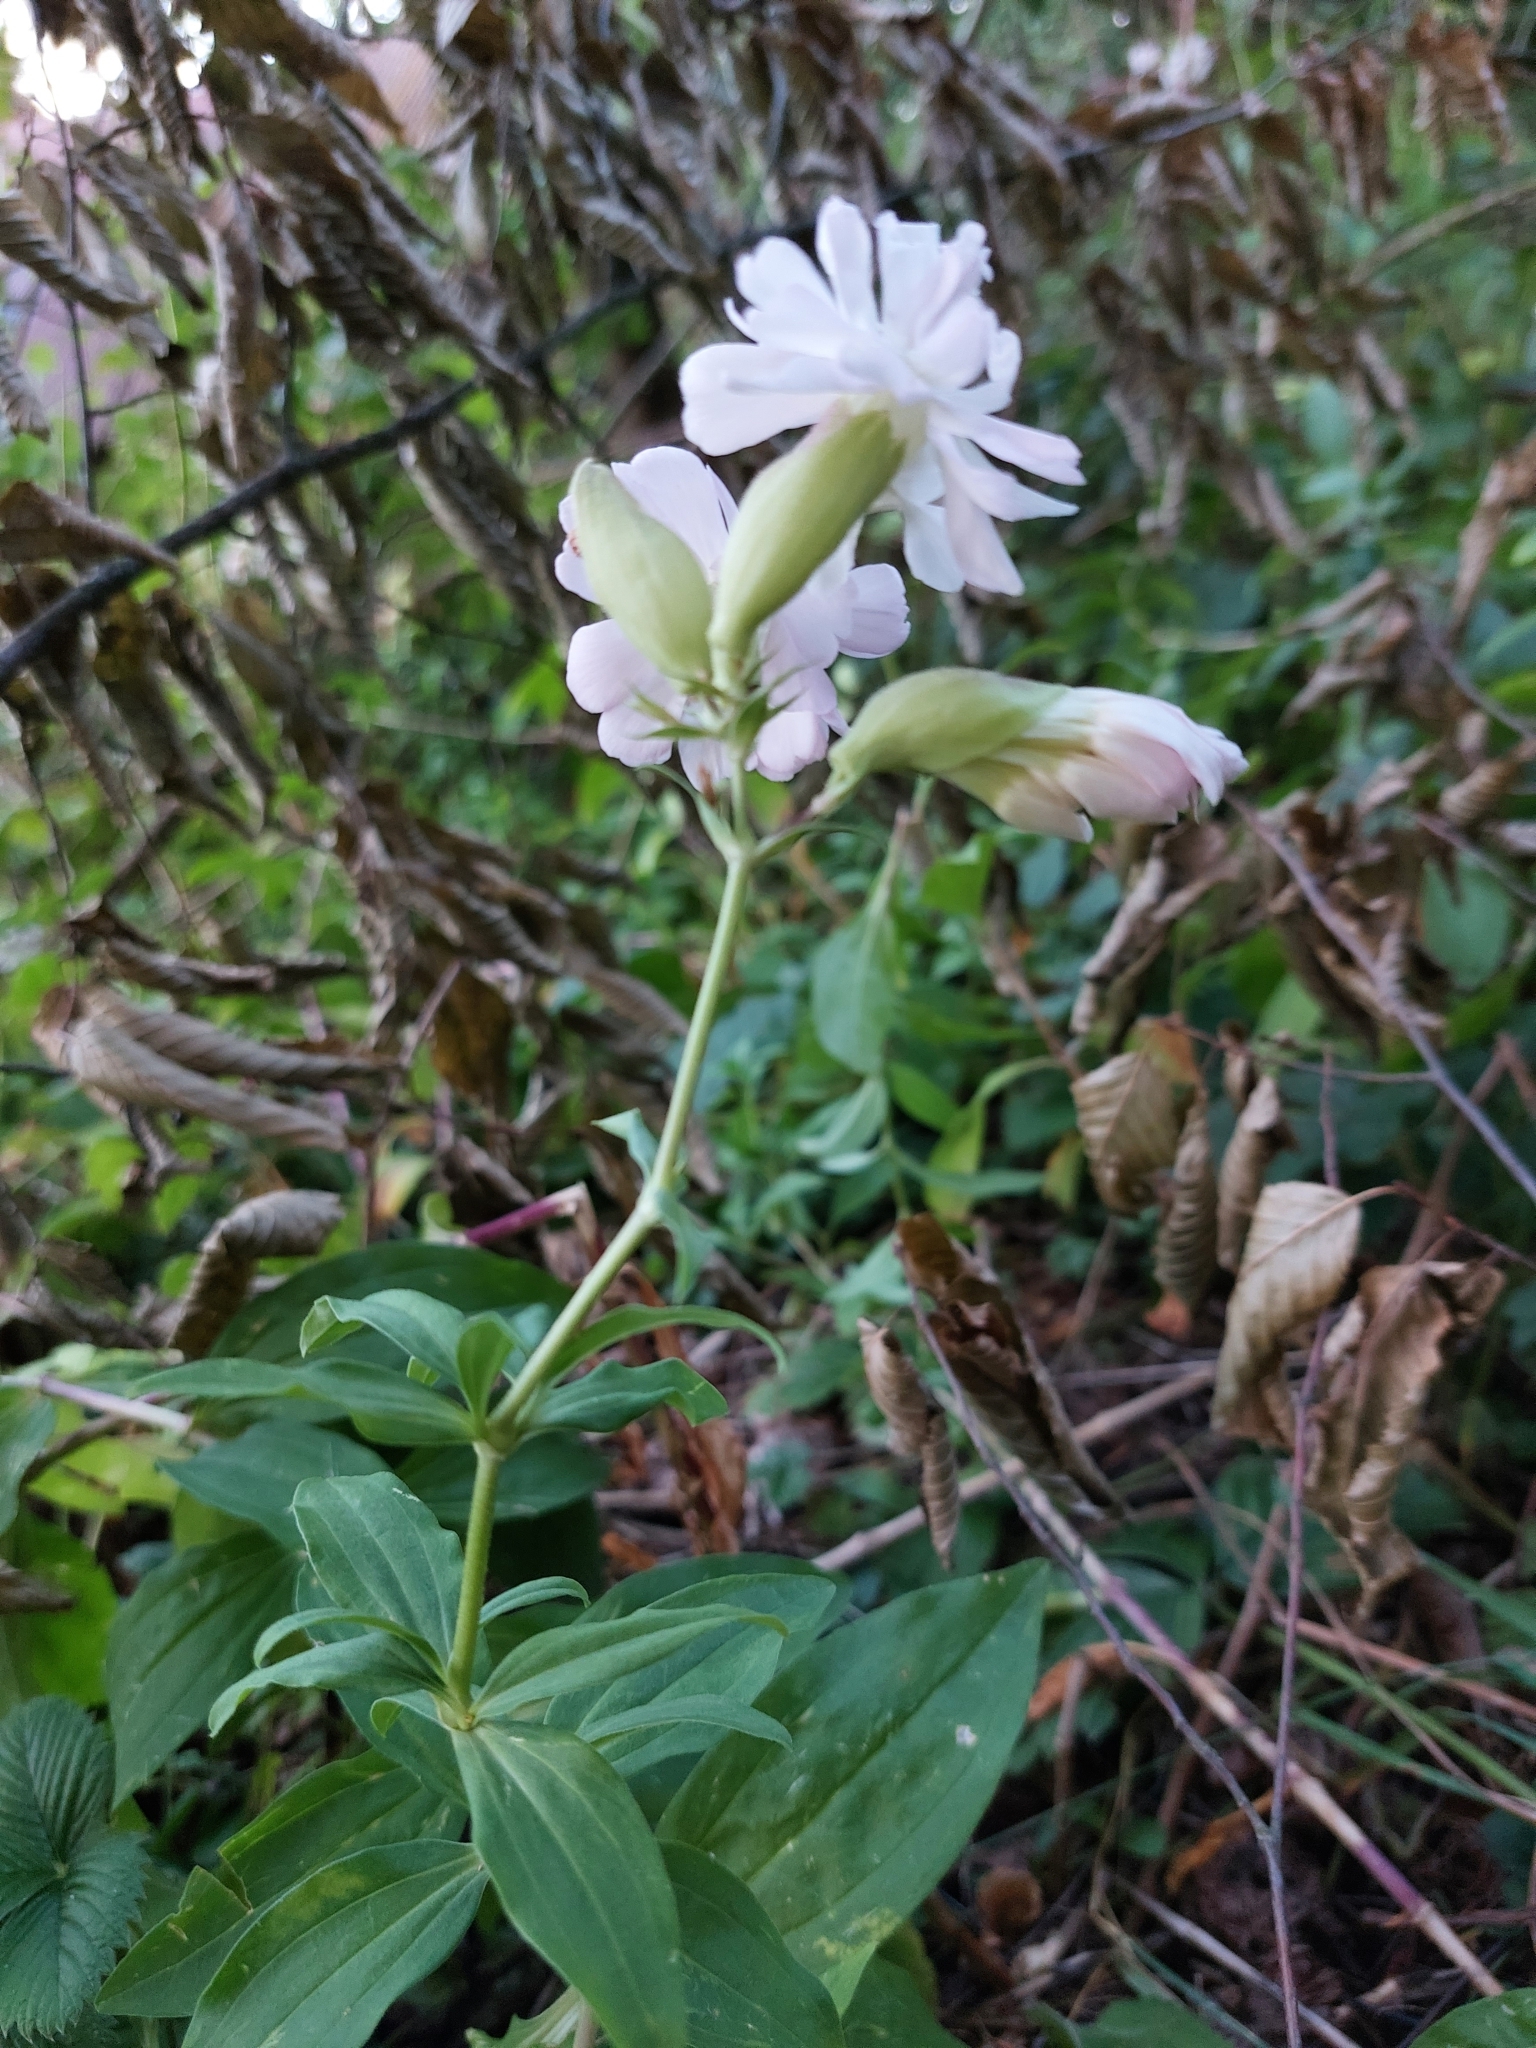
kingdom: Plantae
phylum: Tracheophyta
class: Magnoliopsida
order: Caryophyllales
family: Caryophyllaceae
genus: Saponaria
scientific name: Saponaria officinalis
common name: Soapwort
